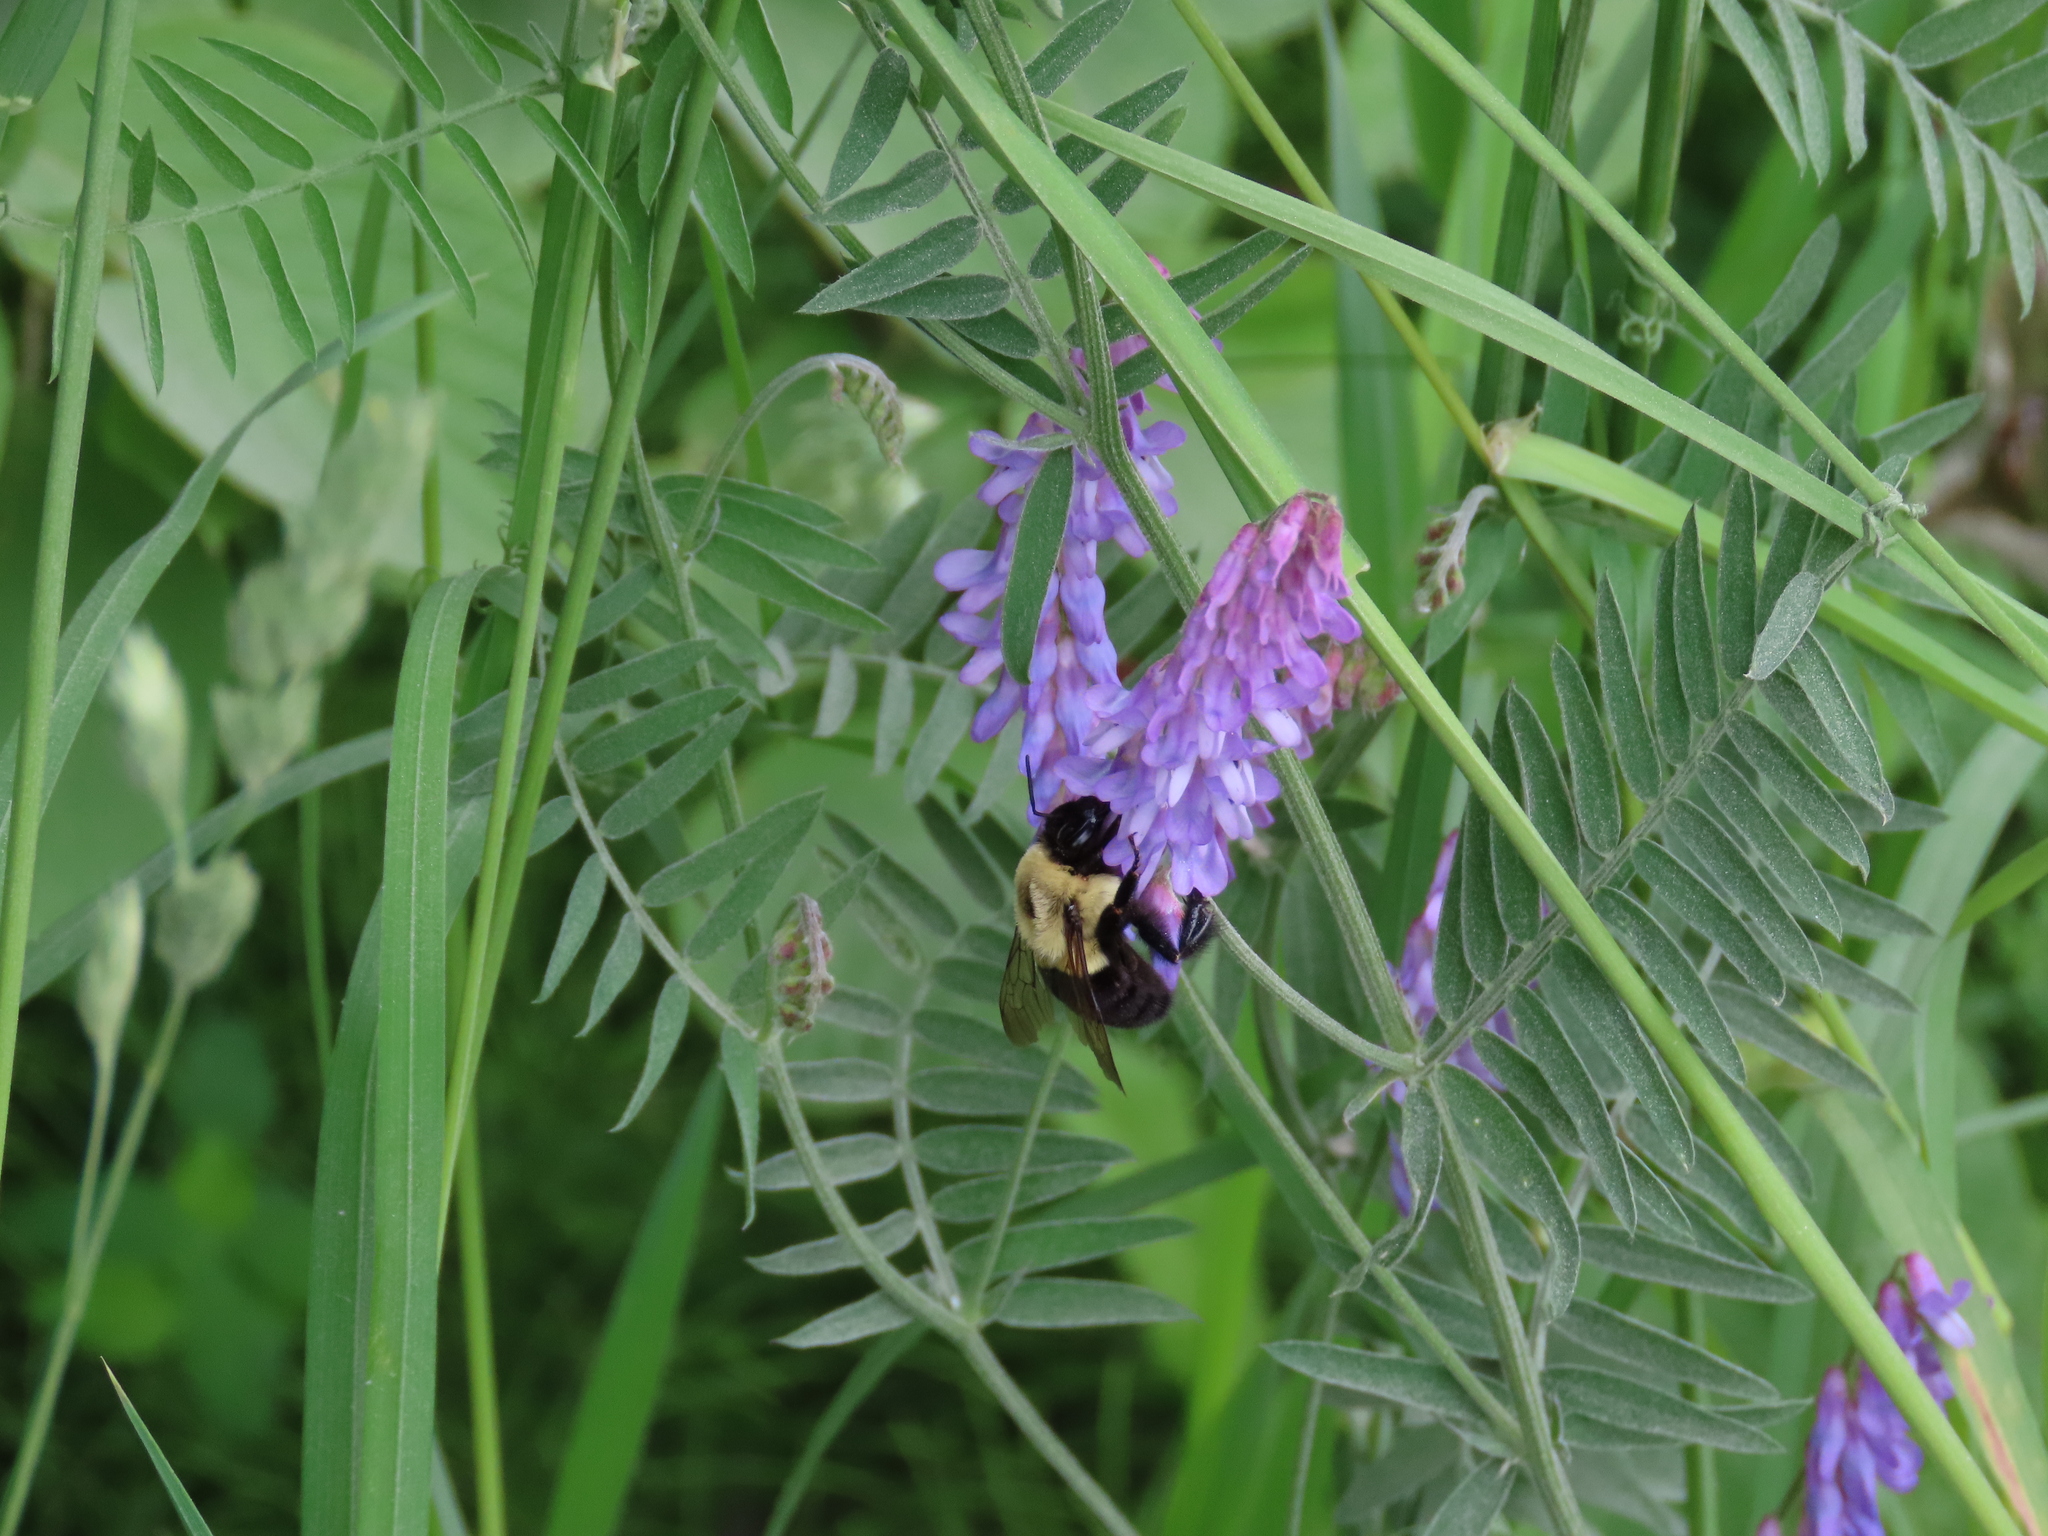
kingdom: Animalia
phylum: Arthropoda
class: Insecta
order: Hymenoptera
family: Apidae
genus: Bombus
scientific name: Bombus impatiens
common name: Common eastern bumble bee
